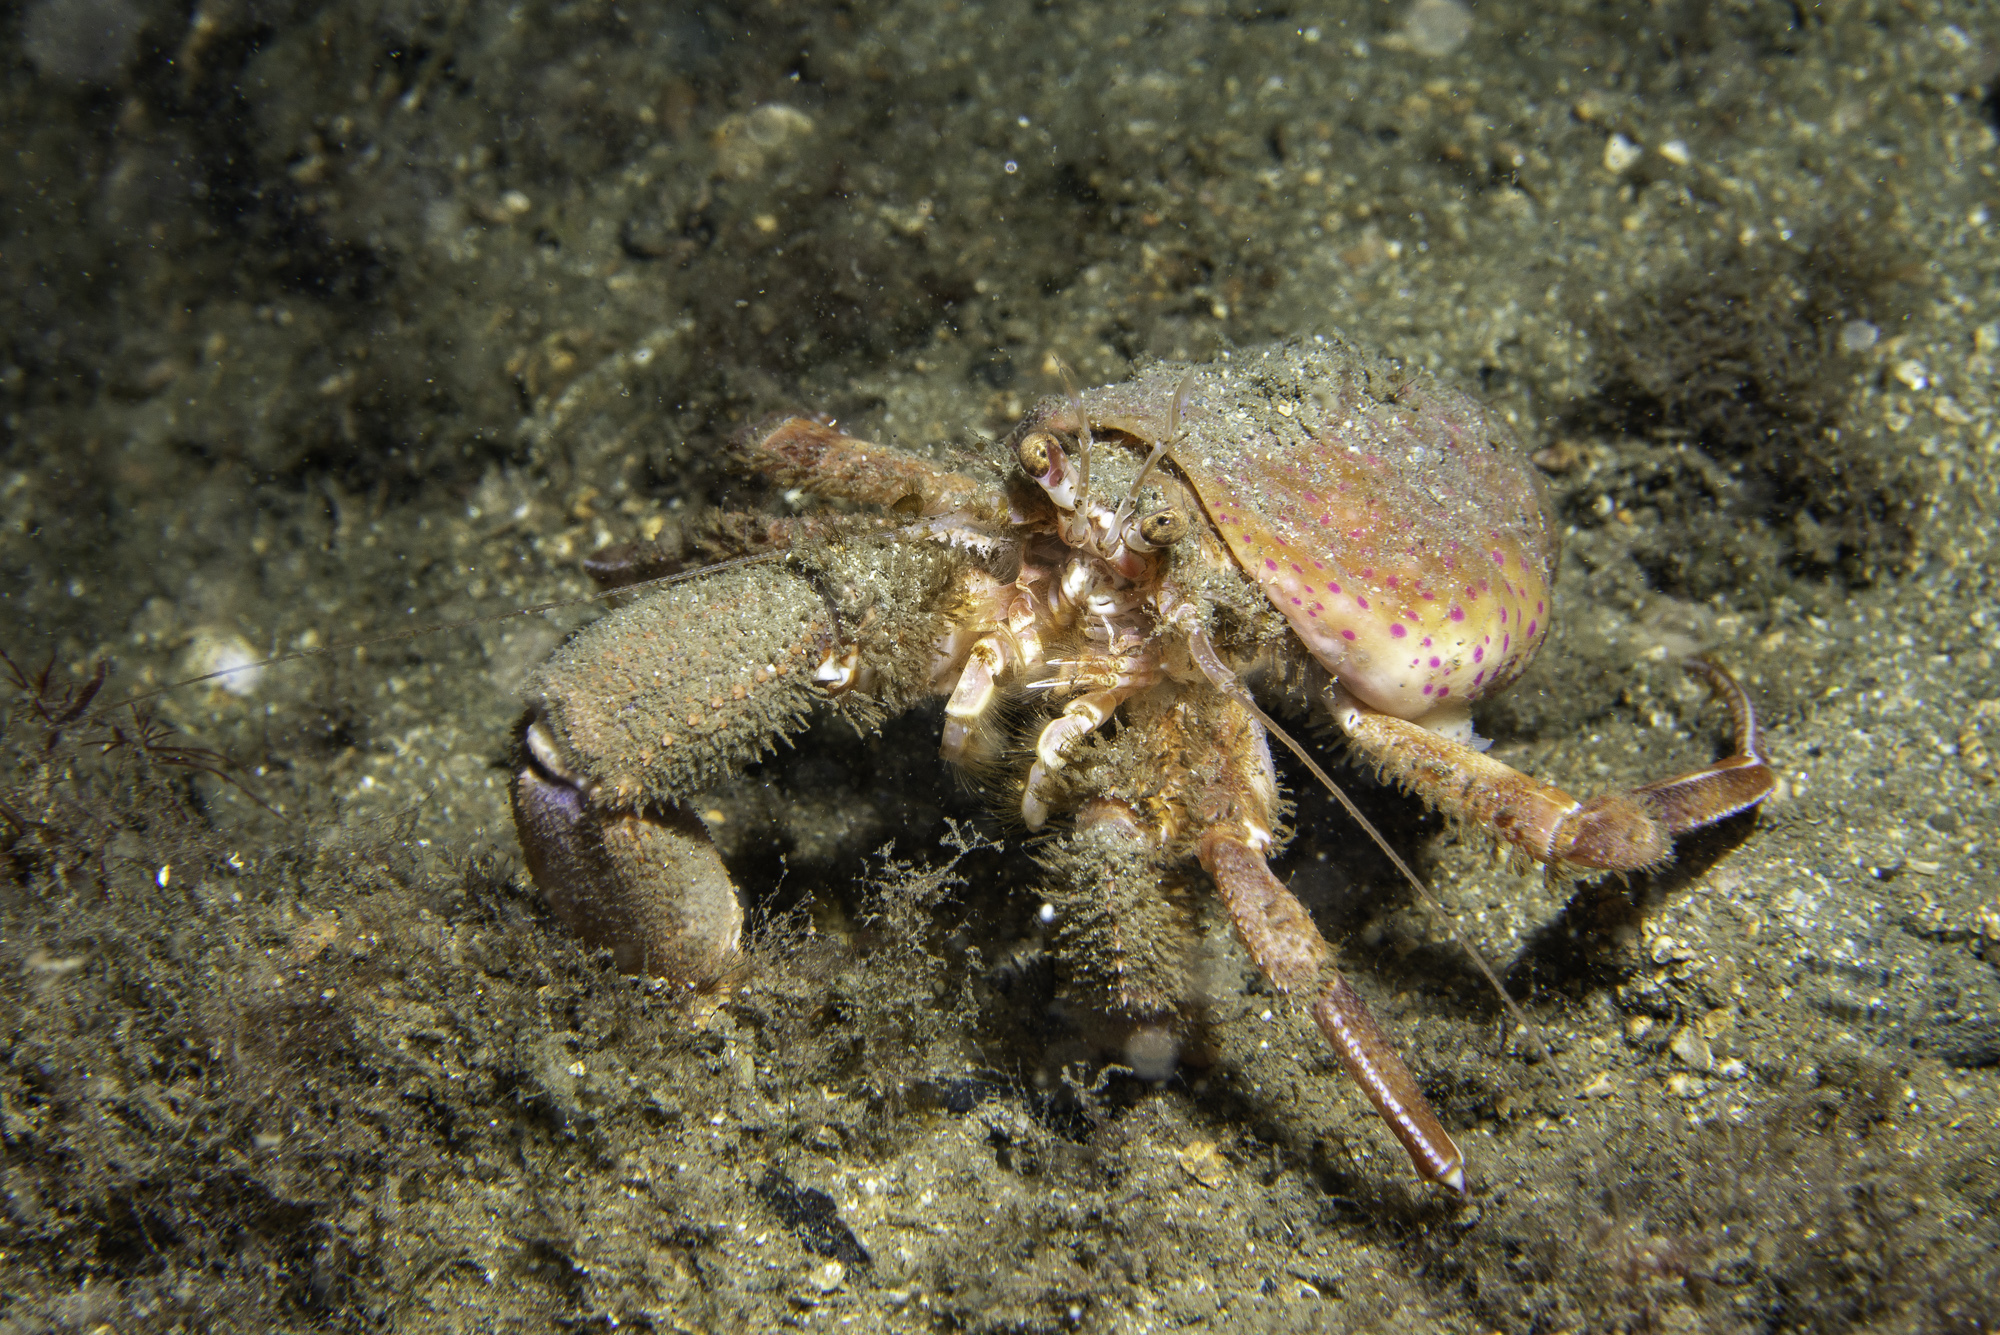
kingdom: Animalia
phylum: Cnidaria
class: Anthozoa
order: Actiniaria
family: Hormathiidae
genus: Calliactis
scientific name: Calliactis palliata
